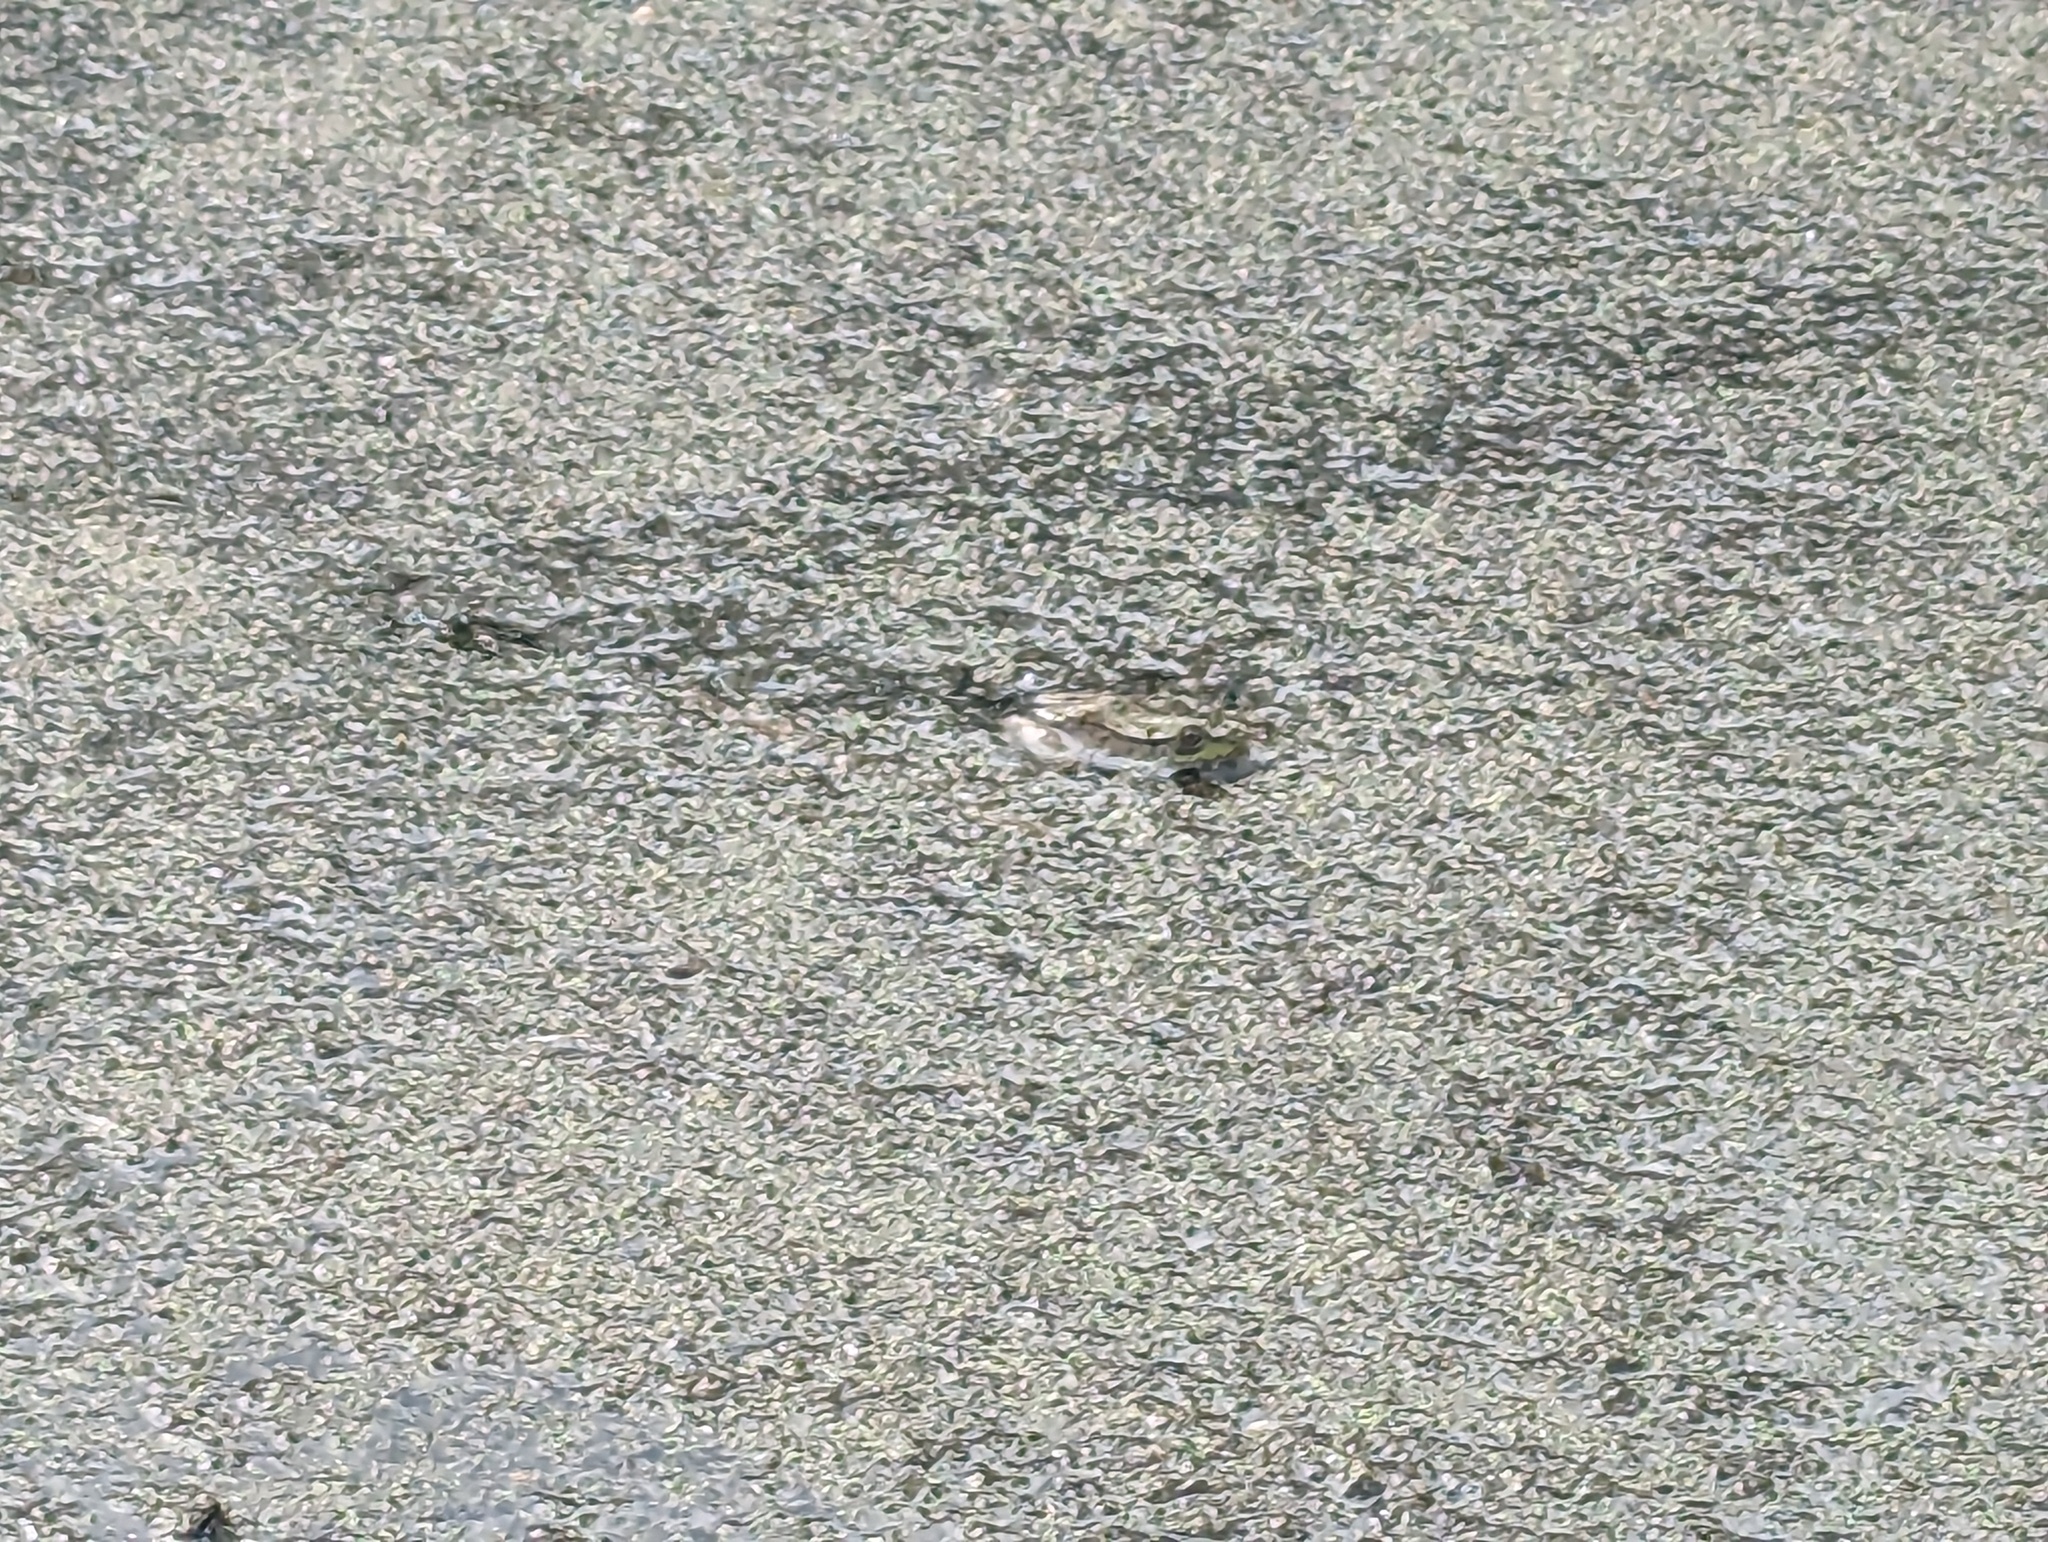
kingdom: Animalia
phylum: Chordata
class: Amphibia
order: Anura
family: Ranidae
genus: Lithobates
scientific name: Lithobates clamitans
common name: Green frog
